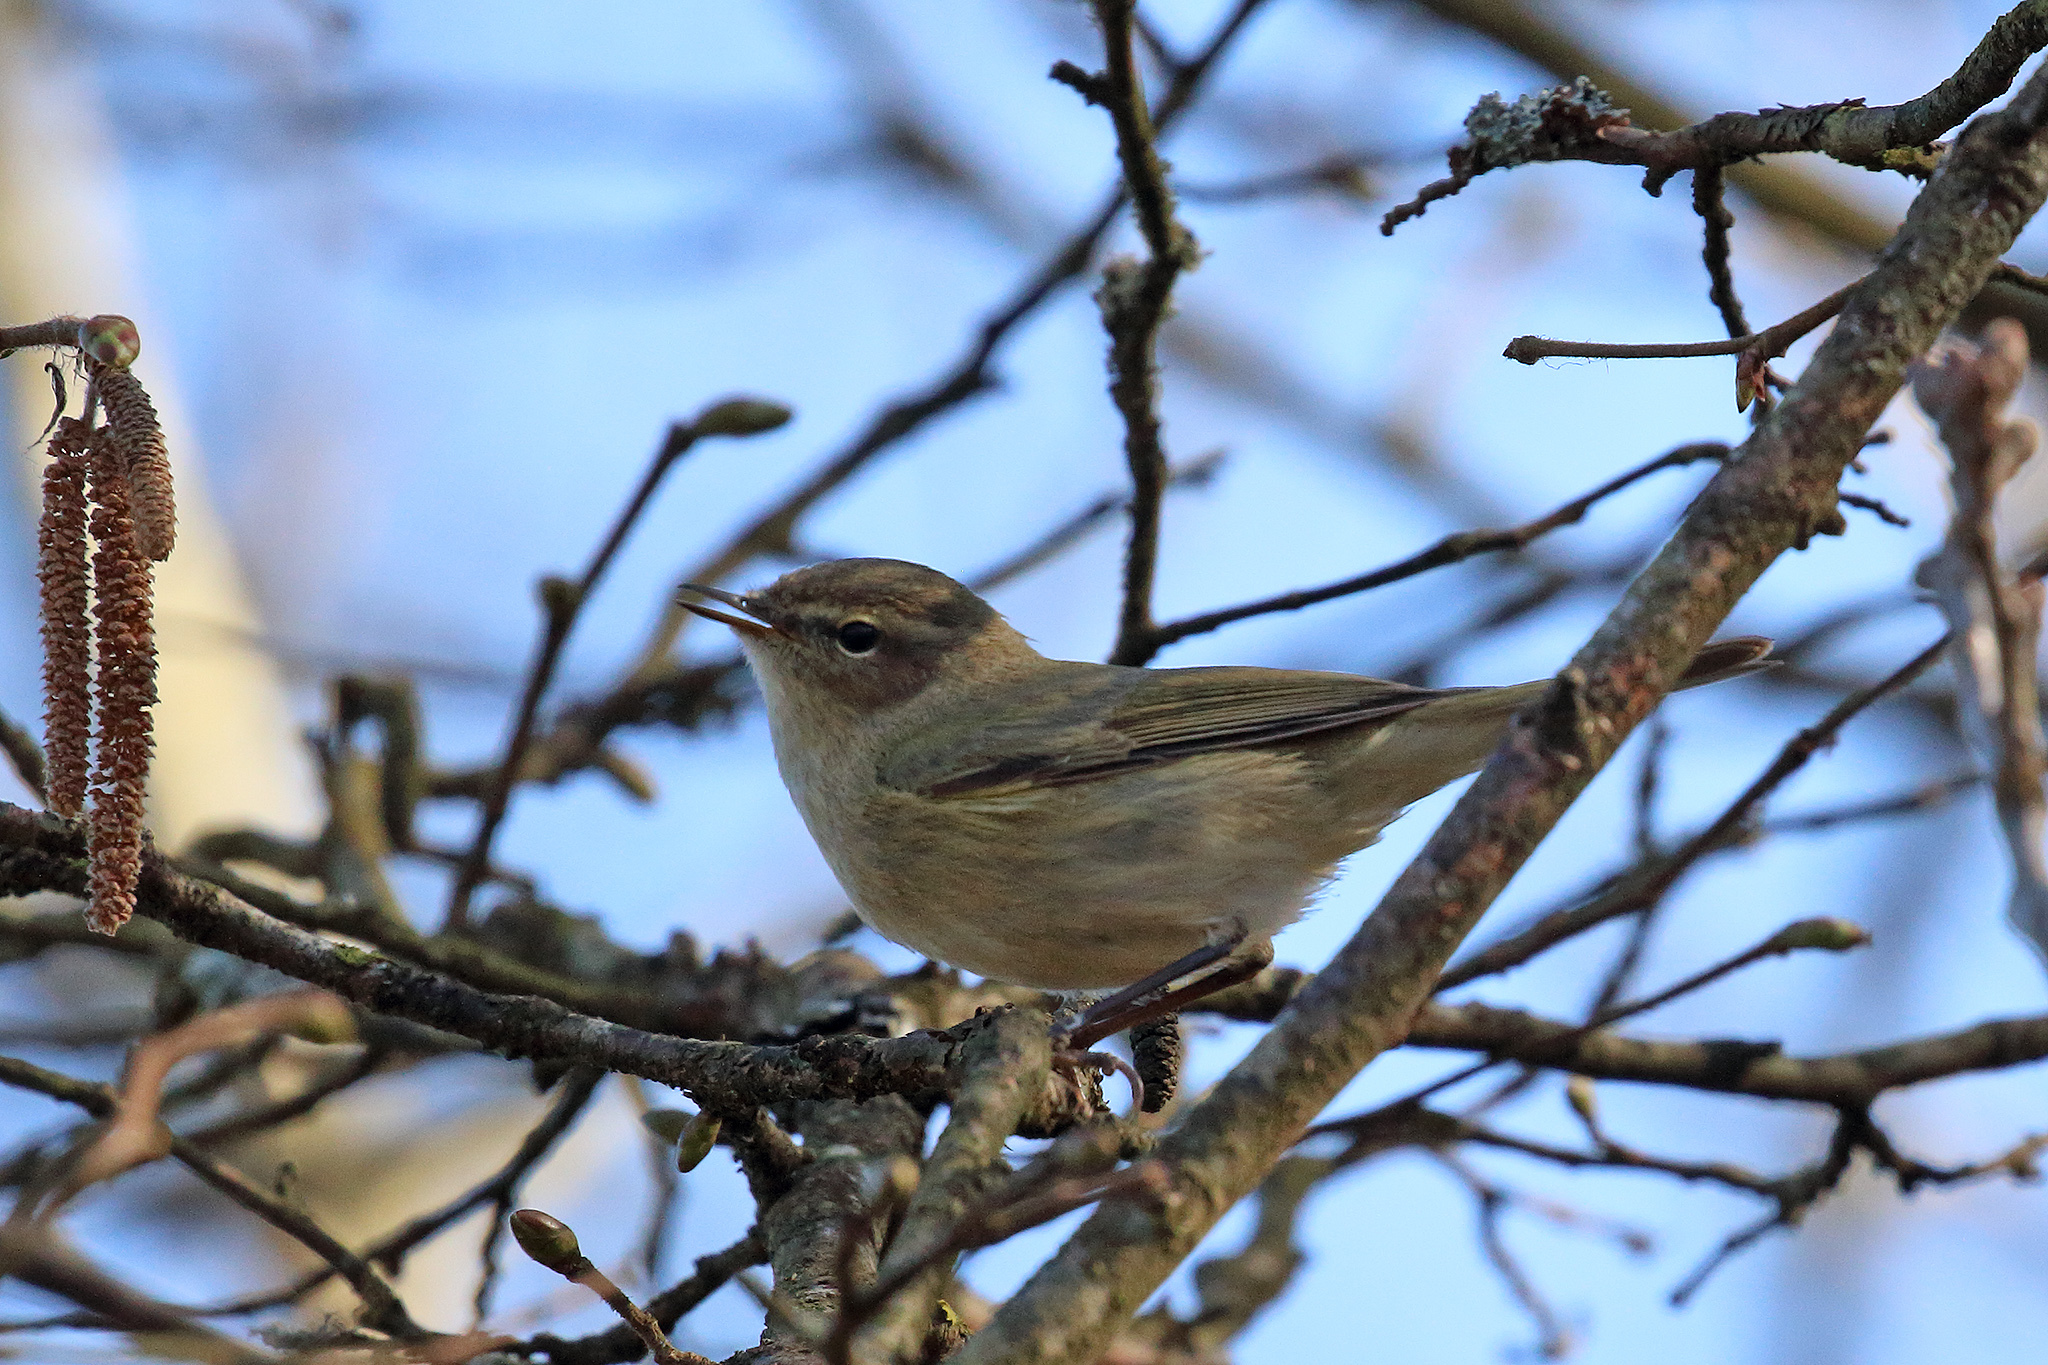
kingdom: Animalia
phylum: Chordata
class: Aves
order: Passeriformes
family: Phylloscopidae
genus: Phylloscopus
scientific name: Phylloscopus collybita
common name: Common chiffchaff
